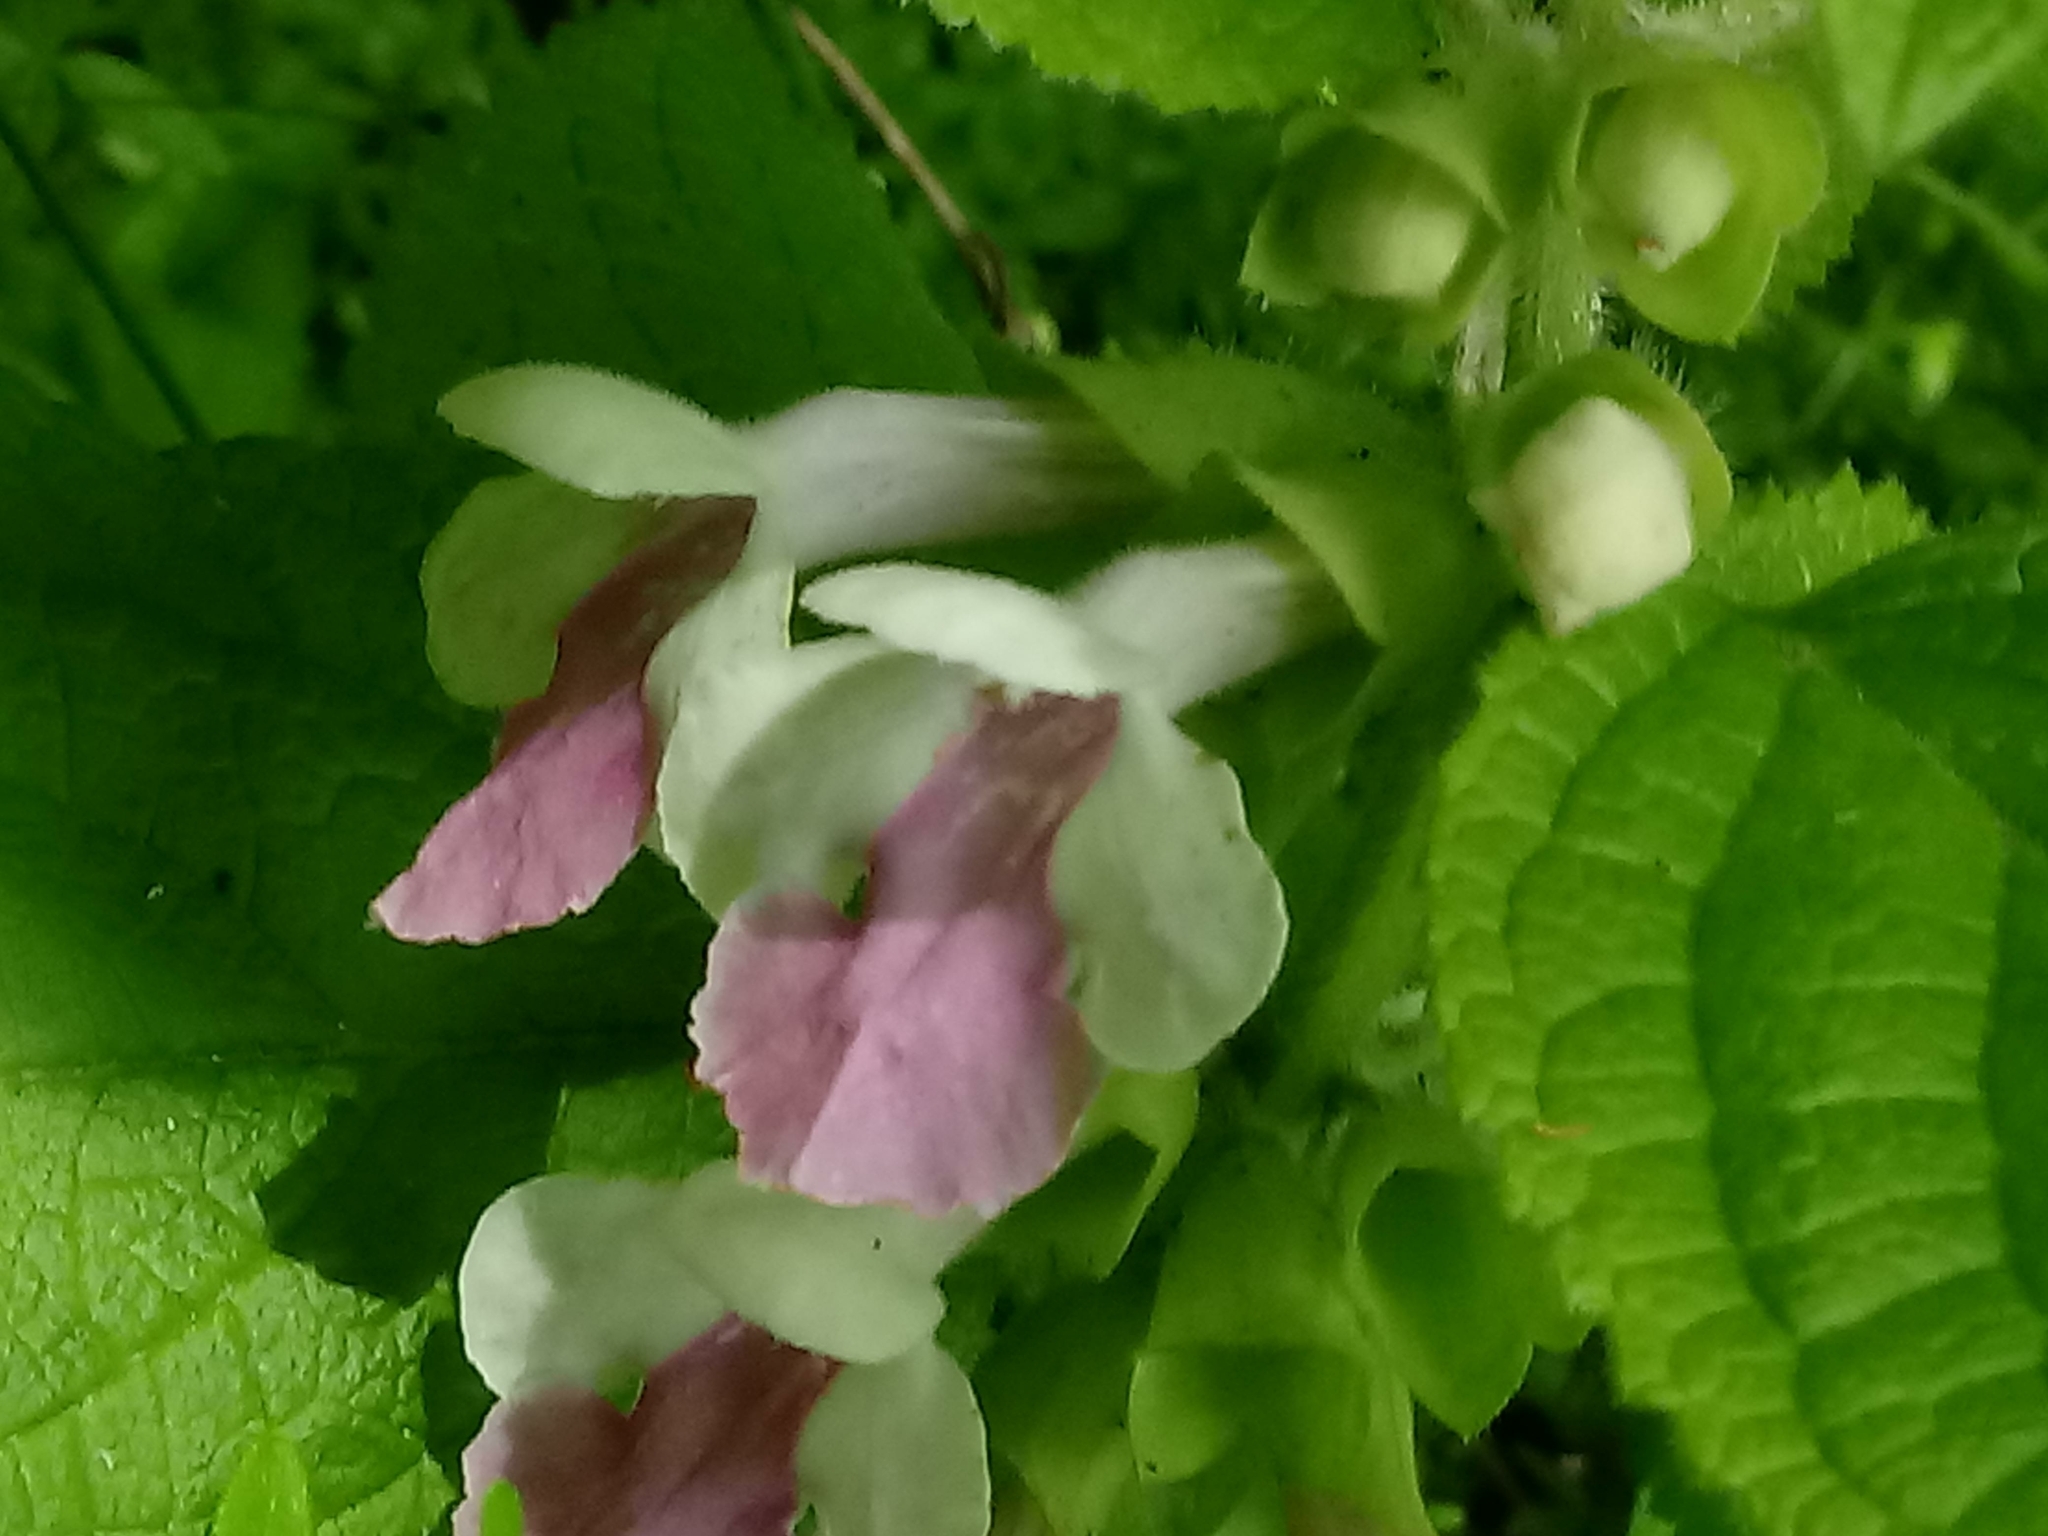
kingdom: Plantae
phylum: Tracheophyta
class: Magnoliopsida
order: Lamiales
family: Lamiaceae
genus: Melittis
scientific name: Melittis melissophyllum
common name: Bastard balm
